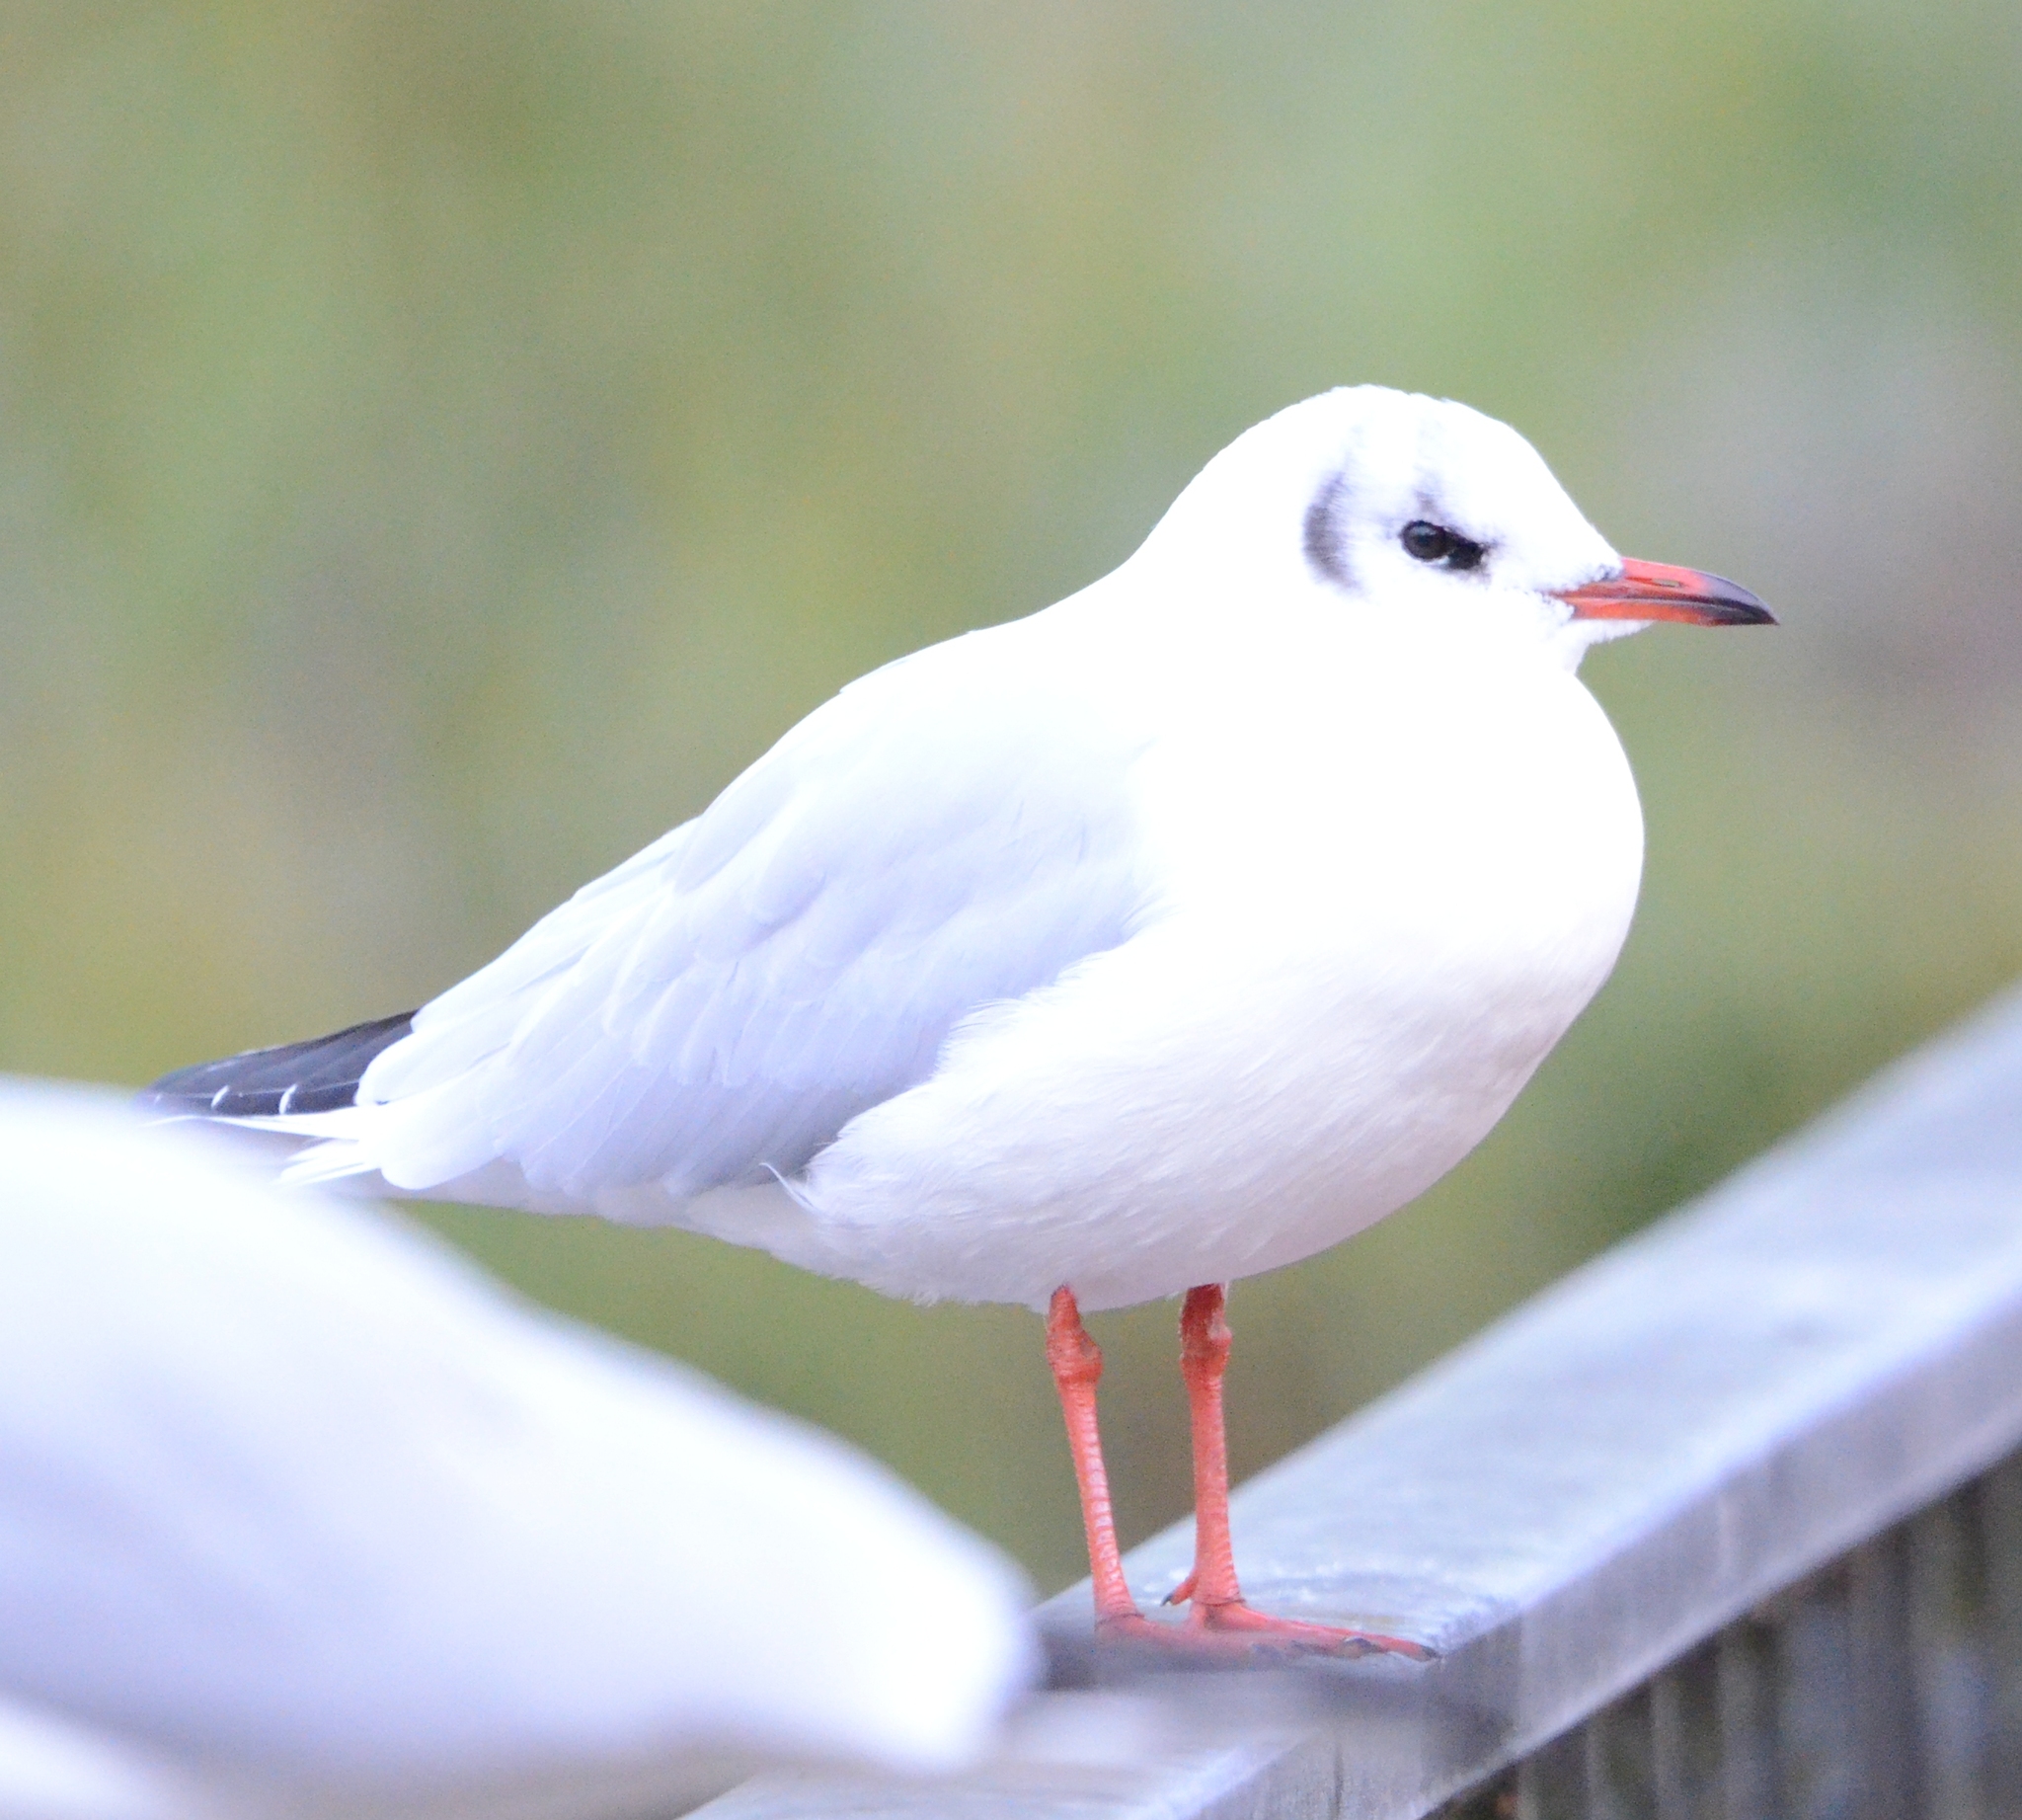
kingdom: Animalia
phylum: Chordata
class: Aves
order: Charadriiformes
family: Laridae
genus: Chroicocephalus
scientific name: Chroicocephalus ridibundus
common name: Black-headed gull
